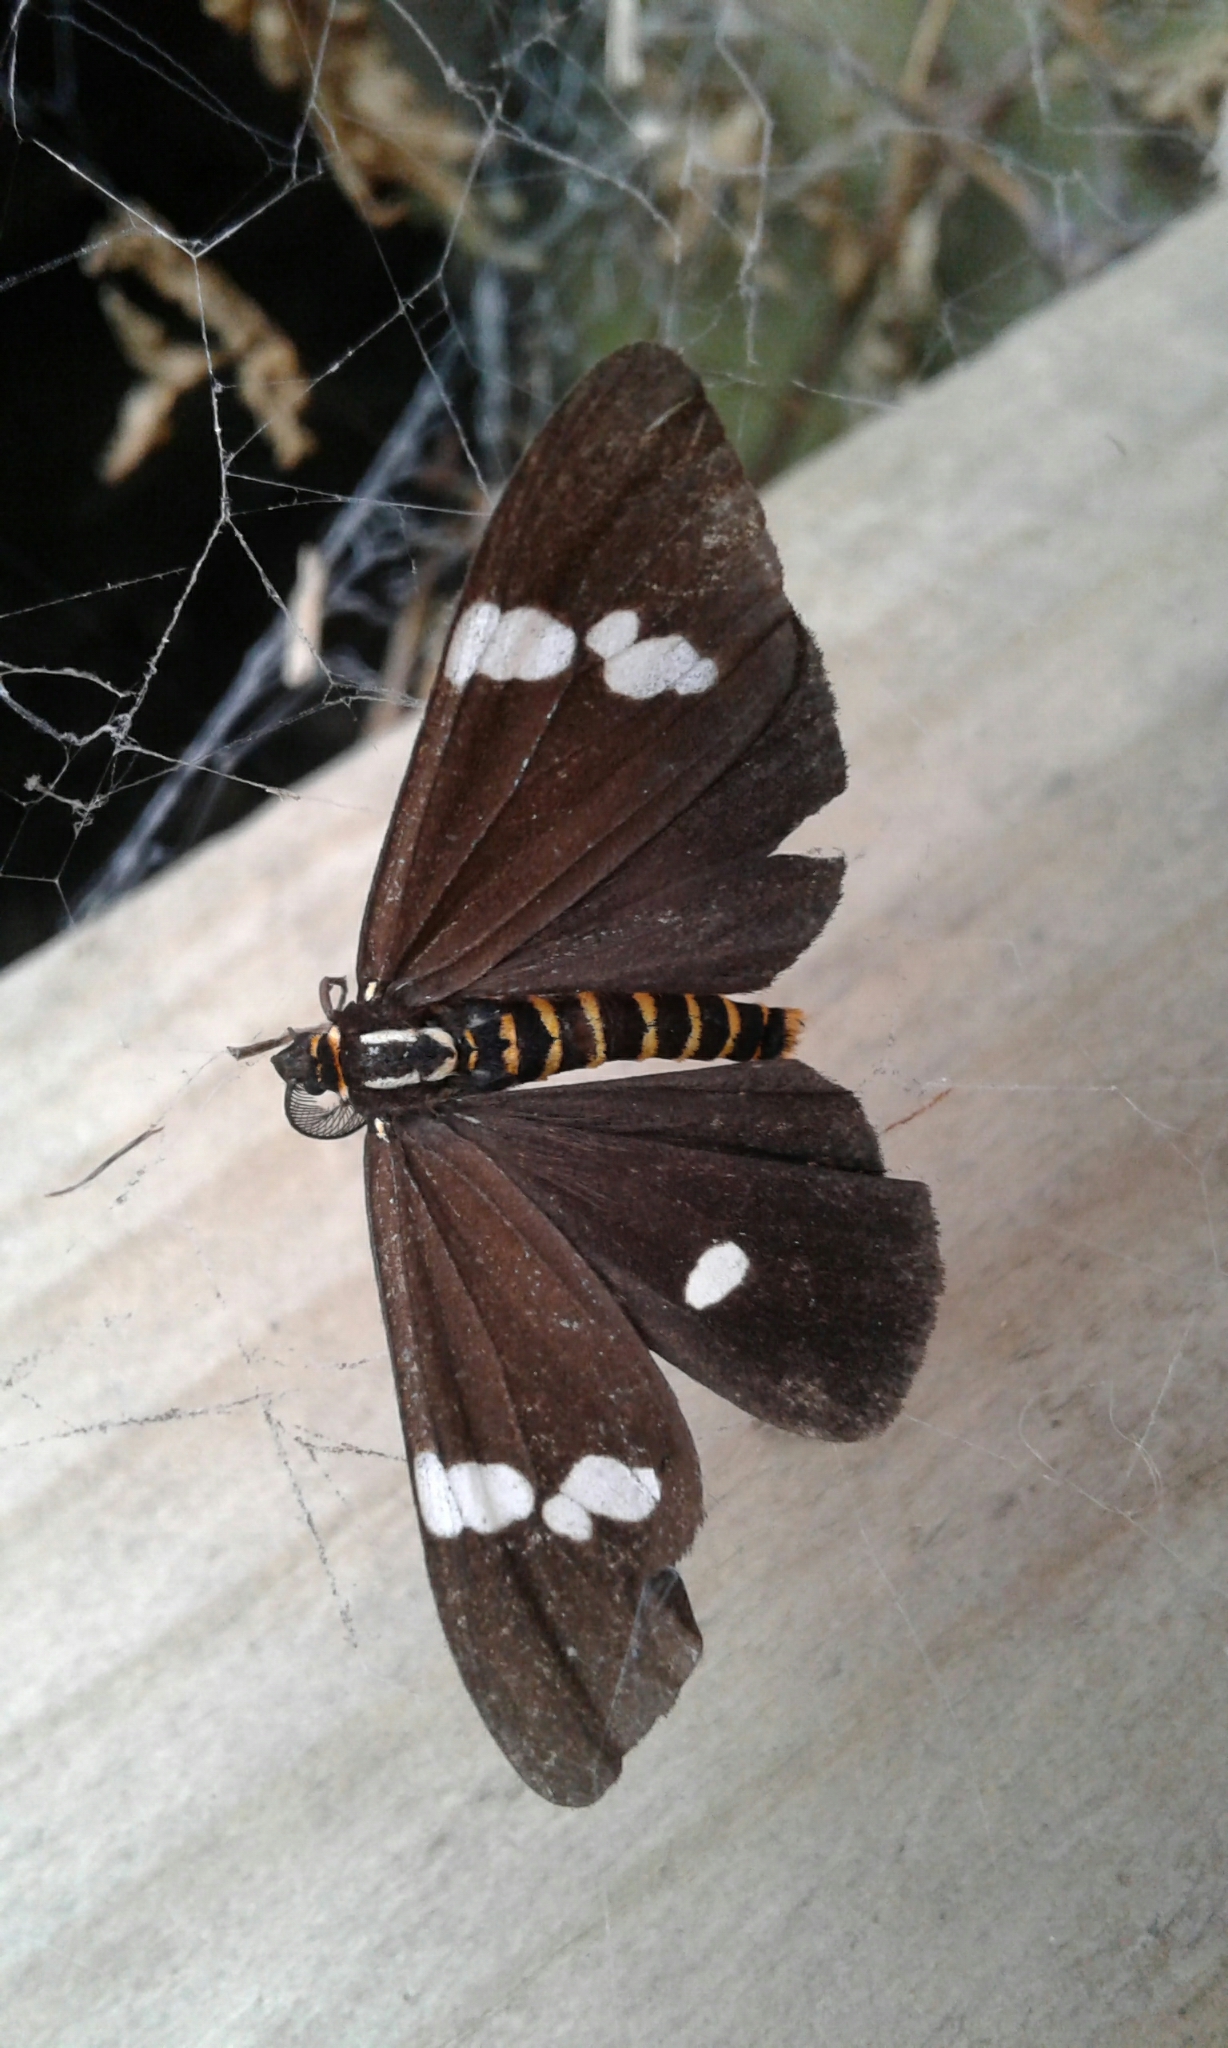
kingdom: Animalia
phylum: Arthropoda
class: Insecta
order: Lepidoptera
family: Erebidae
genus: Nyctemera
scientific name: Nyctemera annulatum
